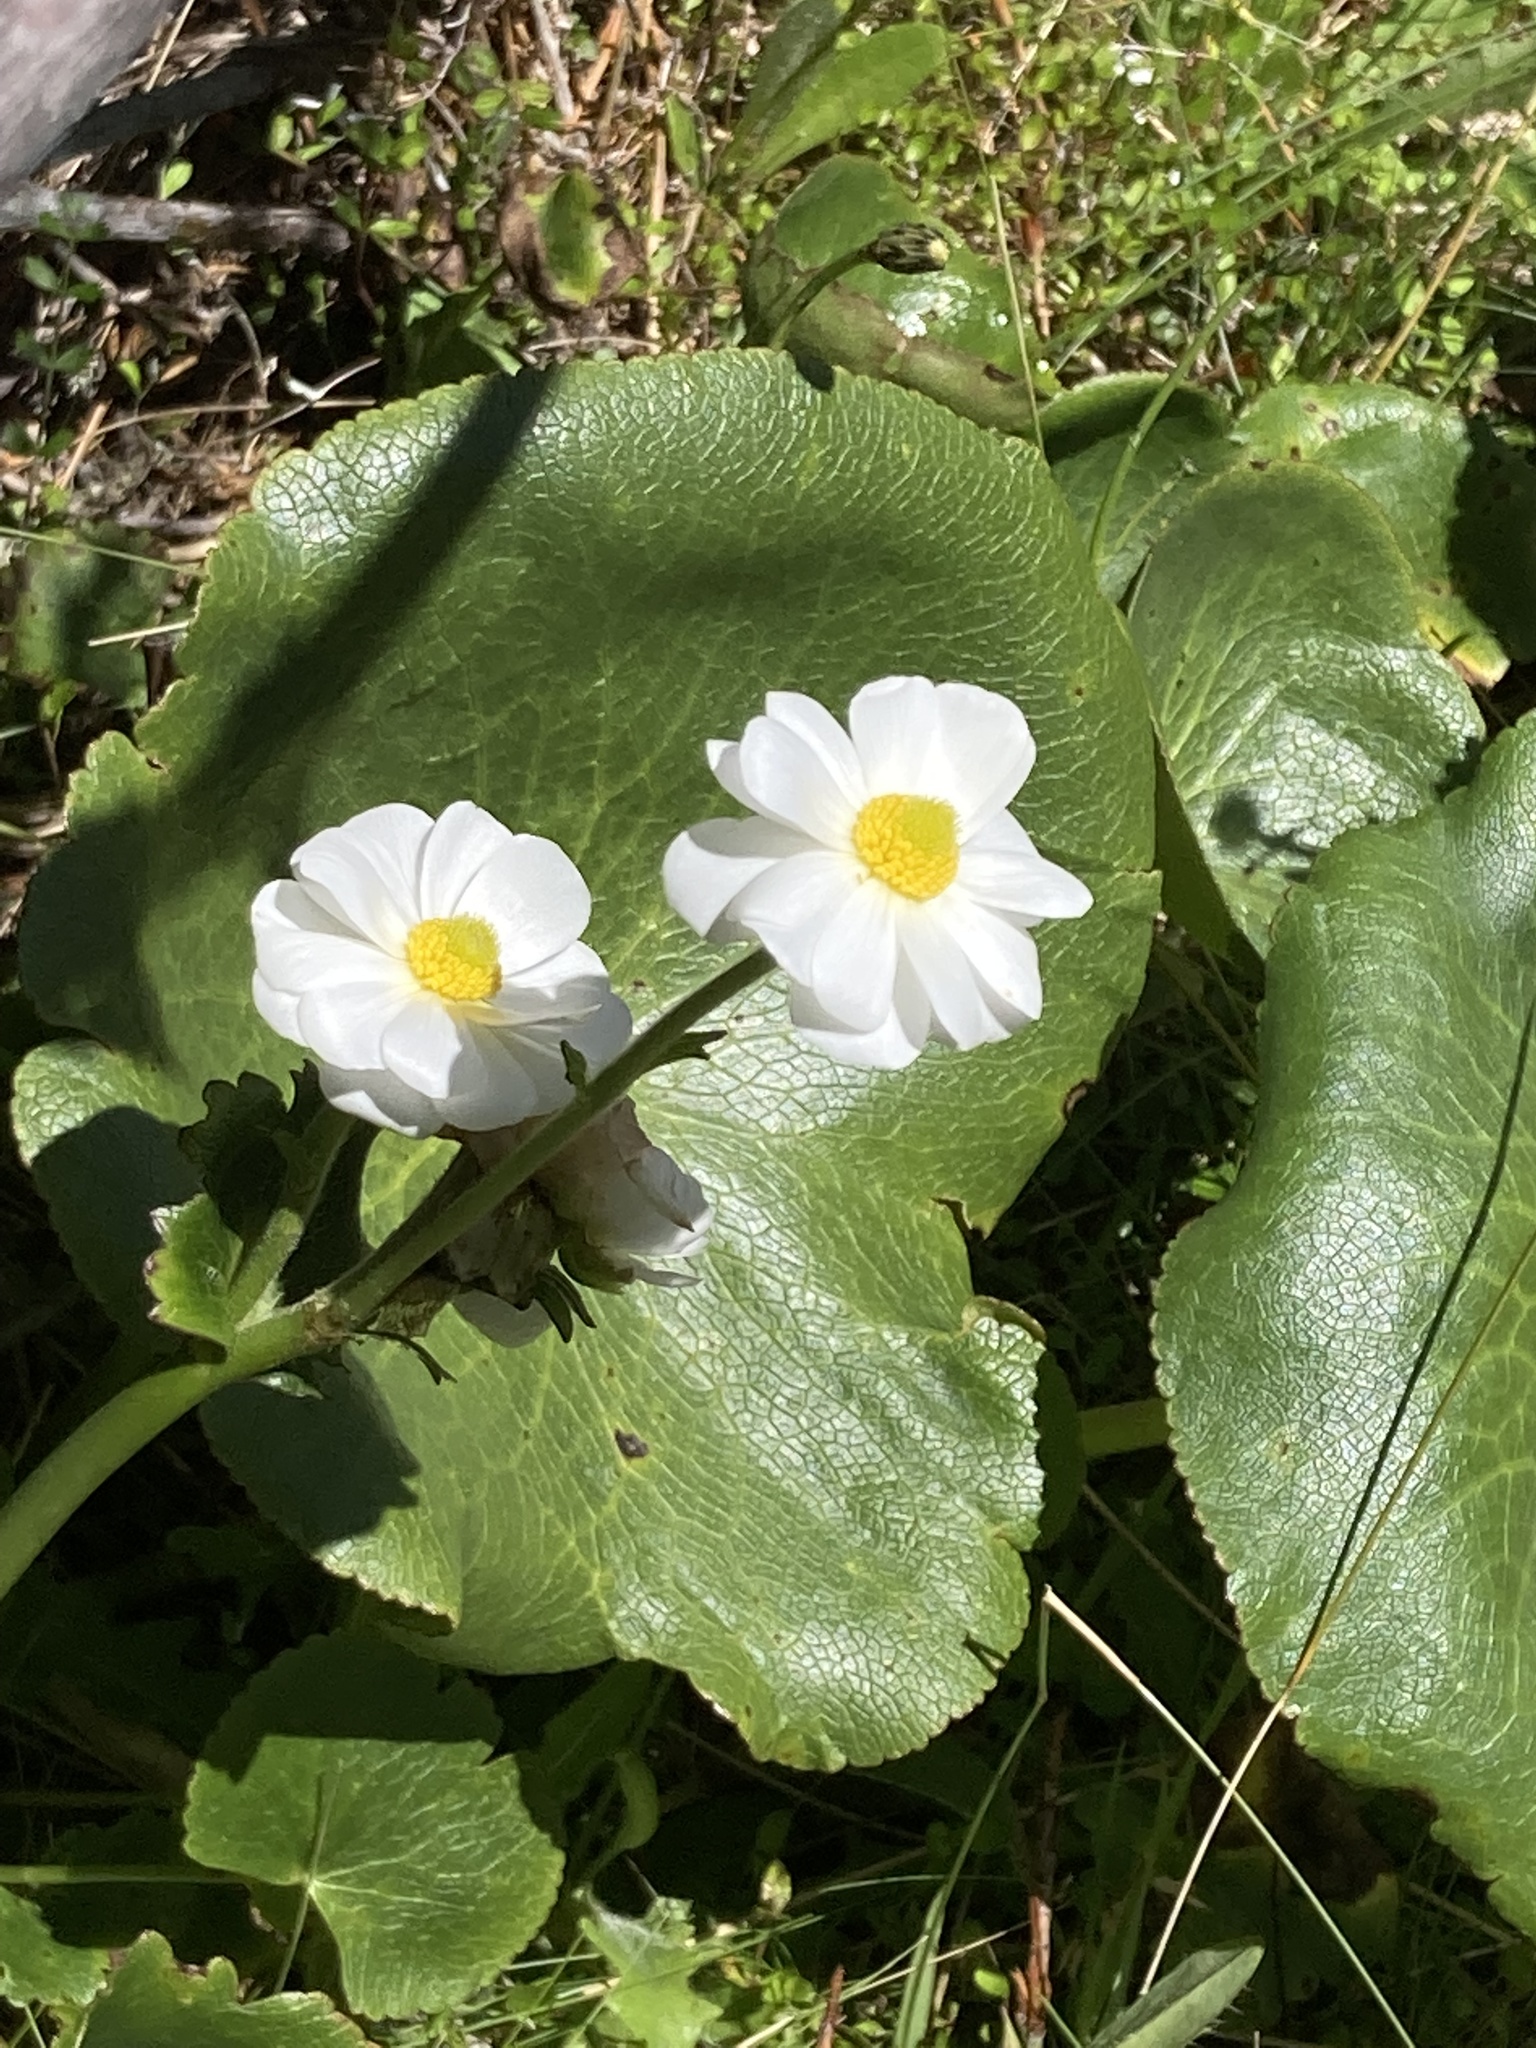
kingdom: Plantae
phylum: Tracheophyta
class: Magnoliopsida
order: Ranunculales
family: Ranunculaceae
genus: Ranunculus
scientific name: Ranunculus lyallii
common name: Mountain-lily
